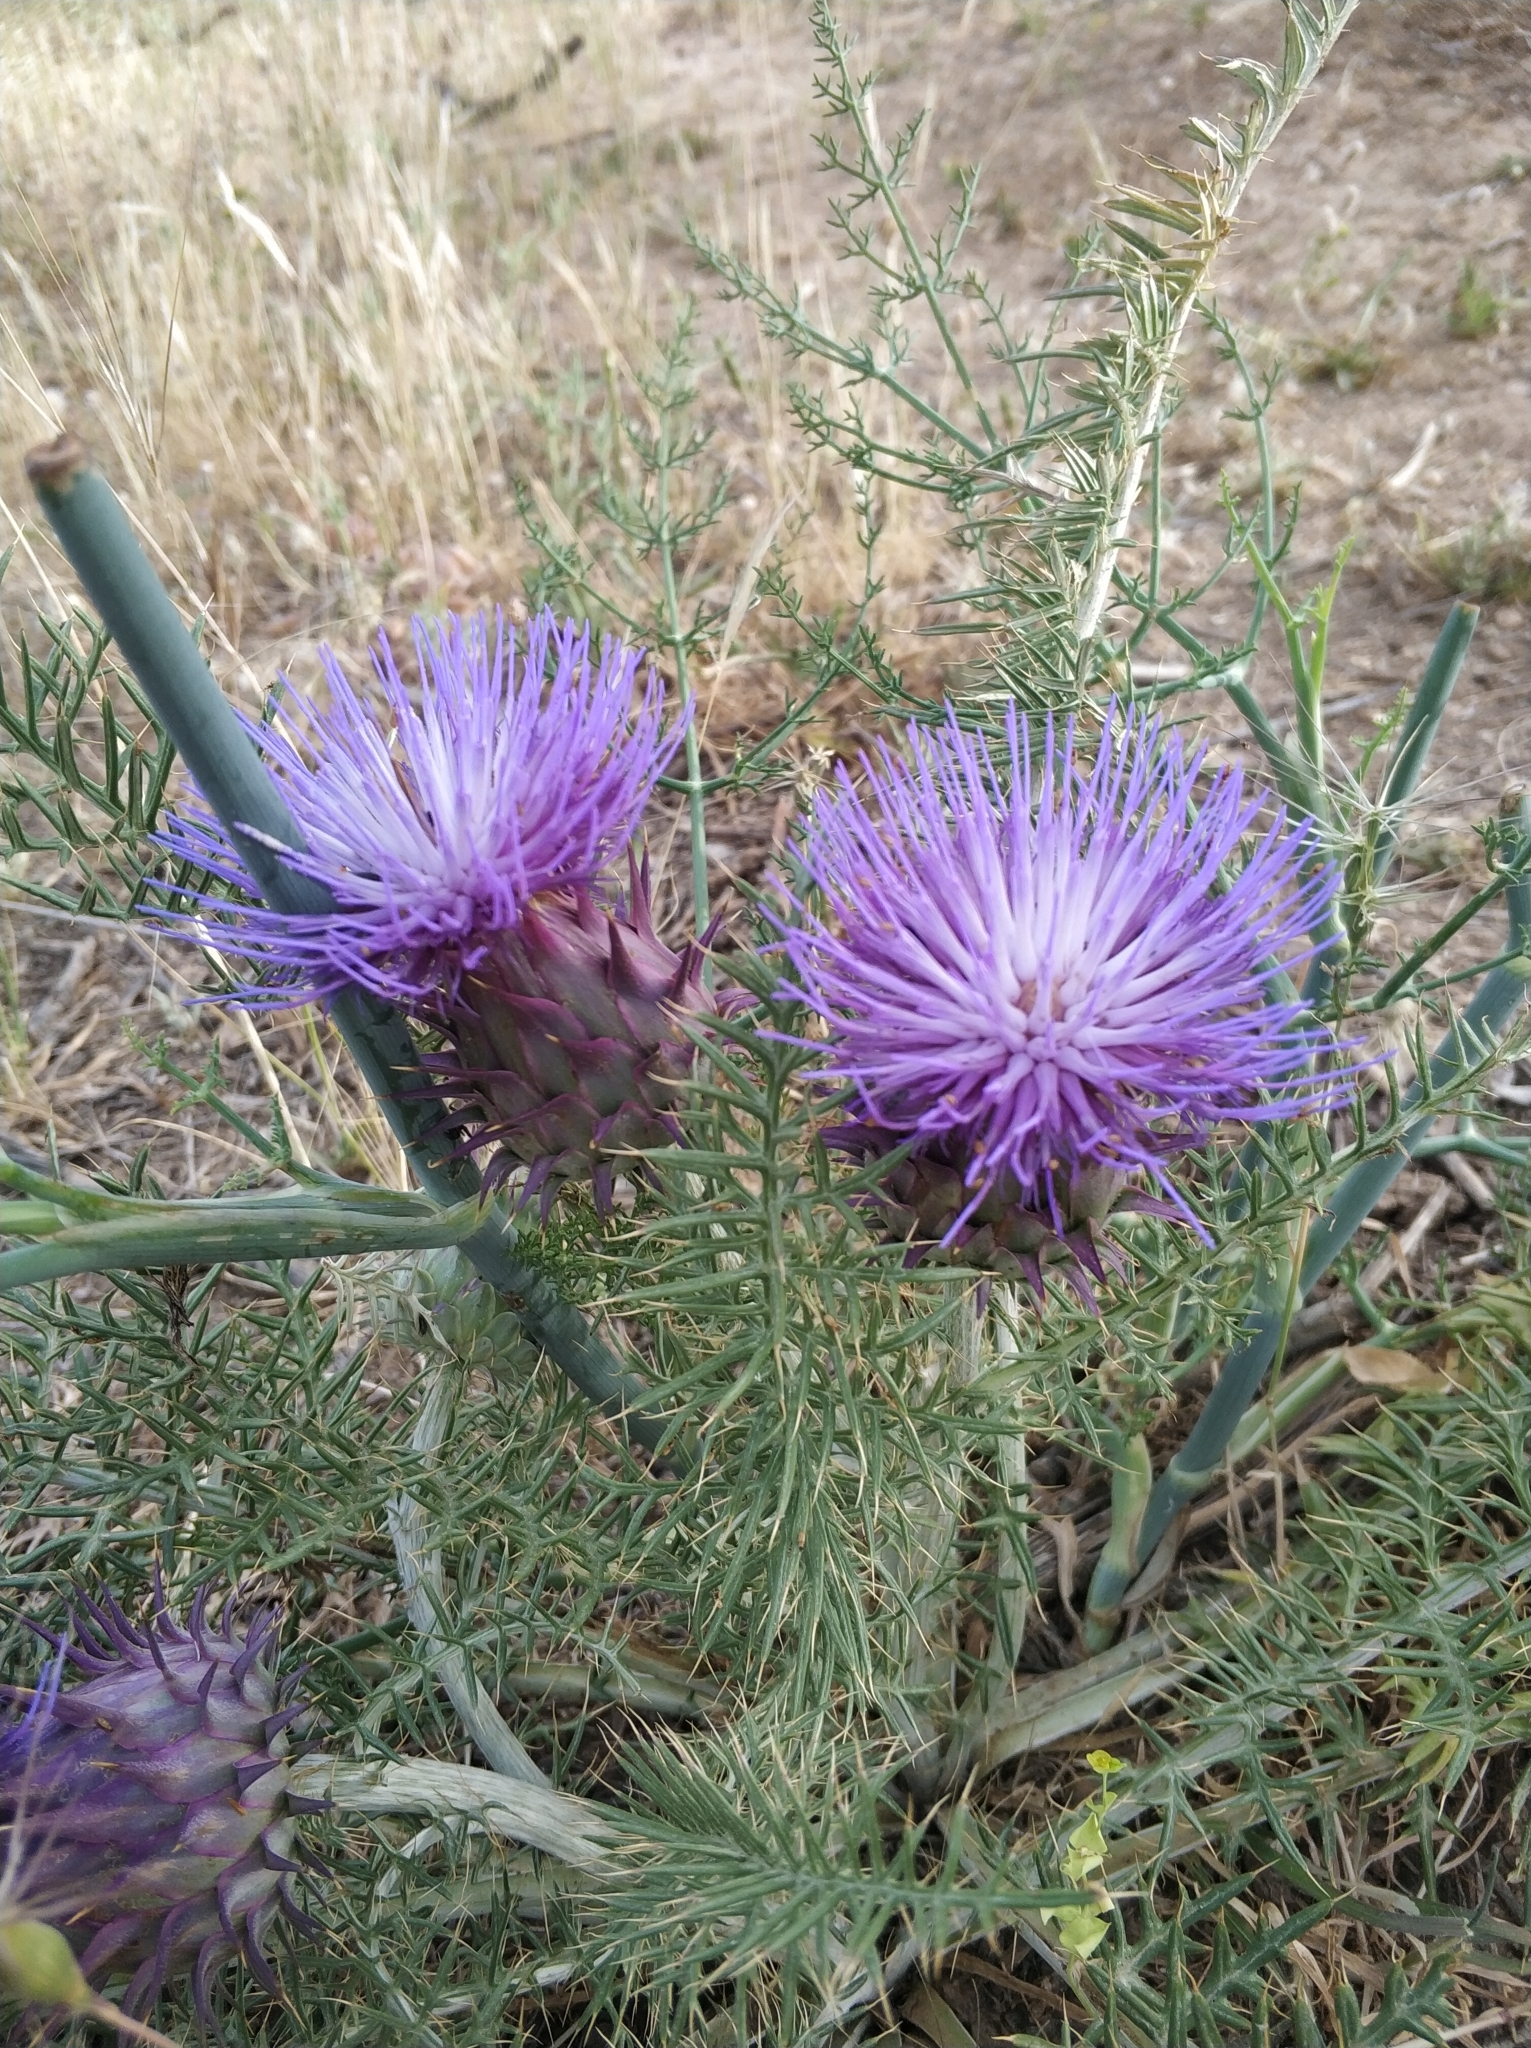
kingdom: Plantae
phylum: Tracheophyta
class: Magnoliopsida
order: Asterales
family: Asteraceae
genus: Cynara
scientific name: Cynara humilis
